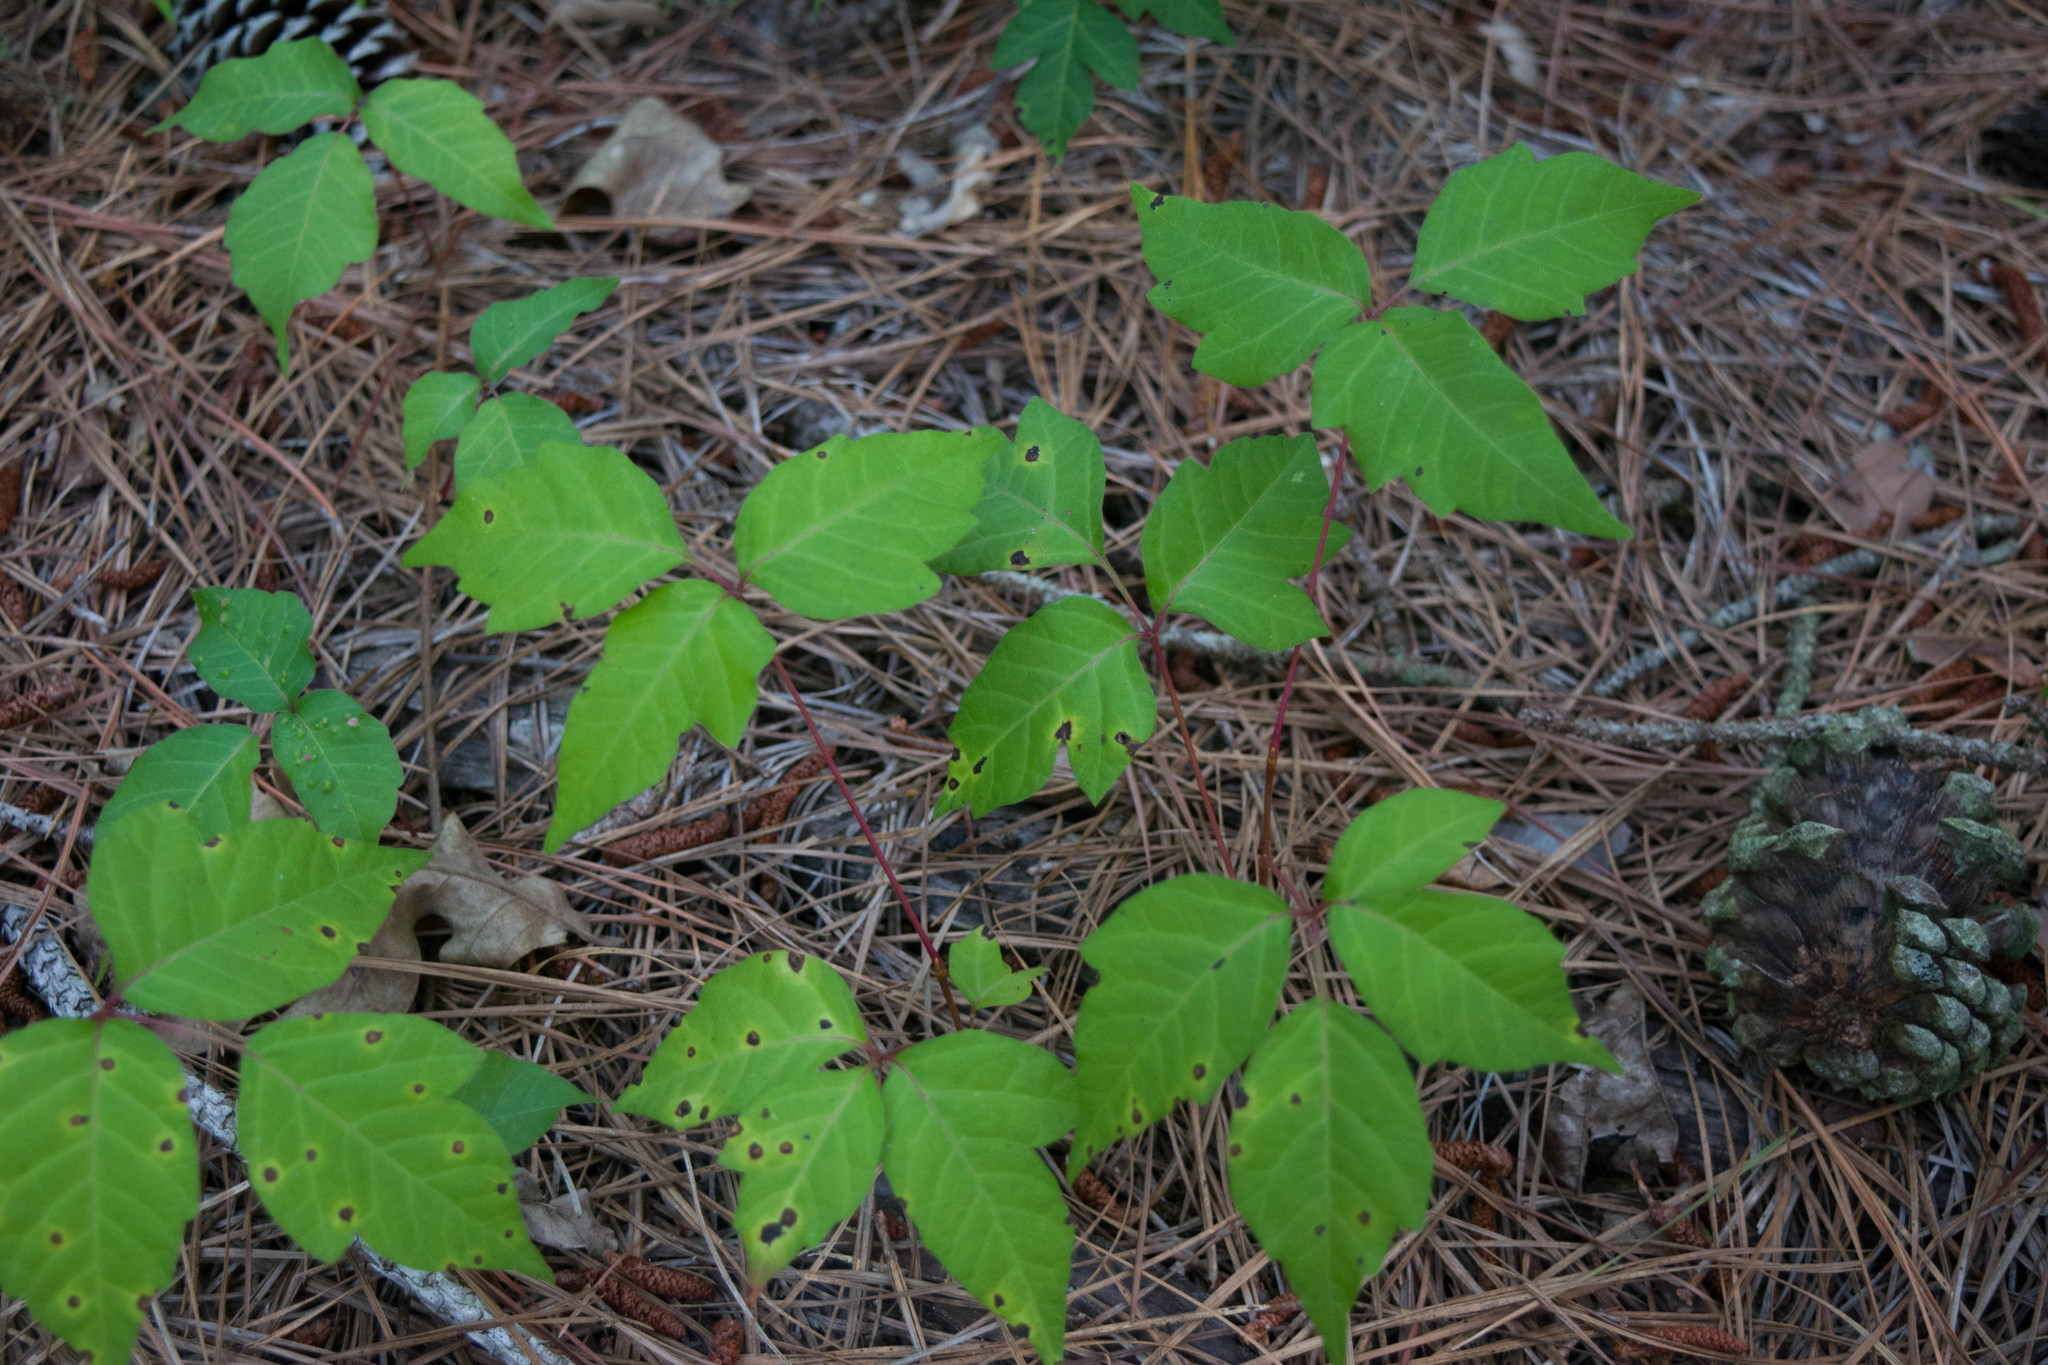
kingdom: Plantae
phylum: Tracheophyta
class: Magnoliopsida
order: Sapindales
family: Anacardiaceae
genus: Toxicodendron
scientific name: Toxicodendron radicans
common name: Poison ivy
